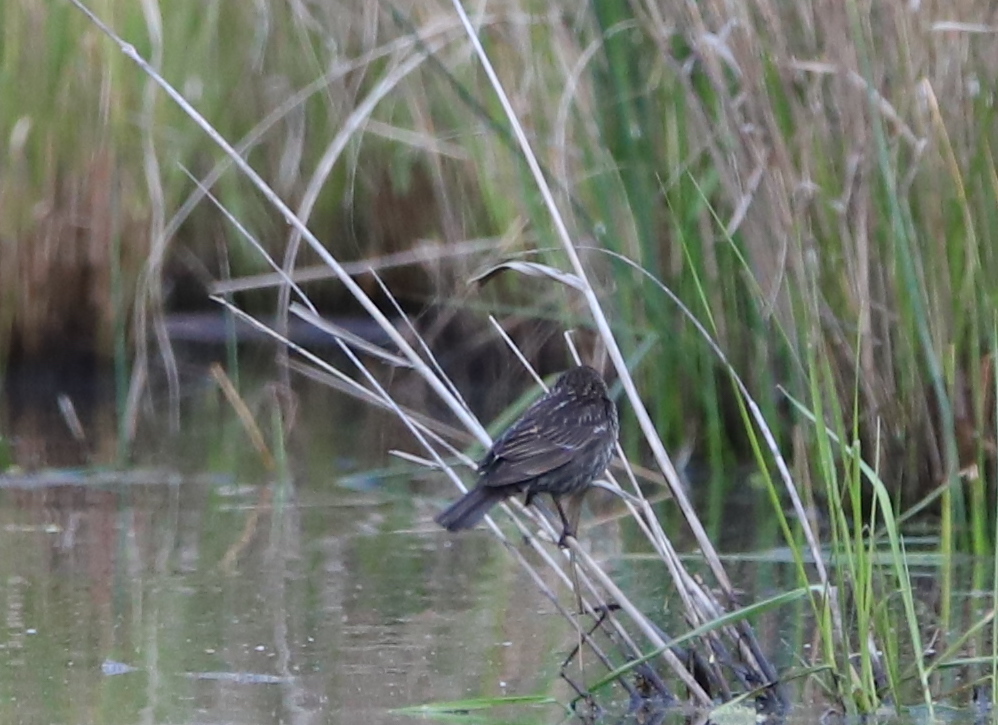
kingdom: Animalia
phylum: Chordata
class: Aves
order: Passeriformes
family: Icteridae
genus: Agelaius
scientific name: Agelaius phoeniceus
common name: Red-winged blackbird
